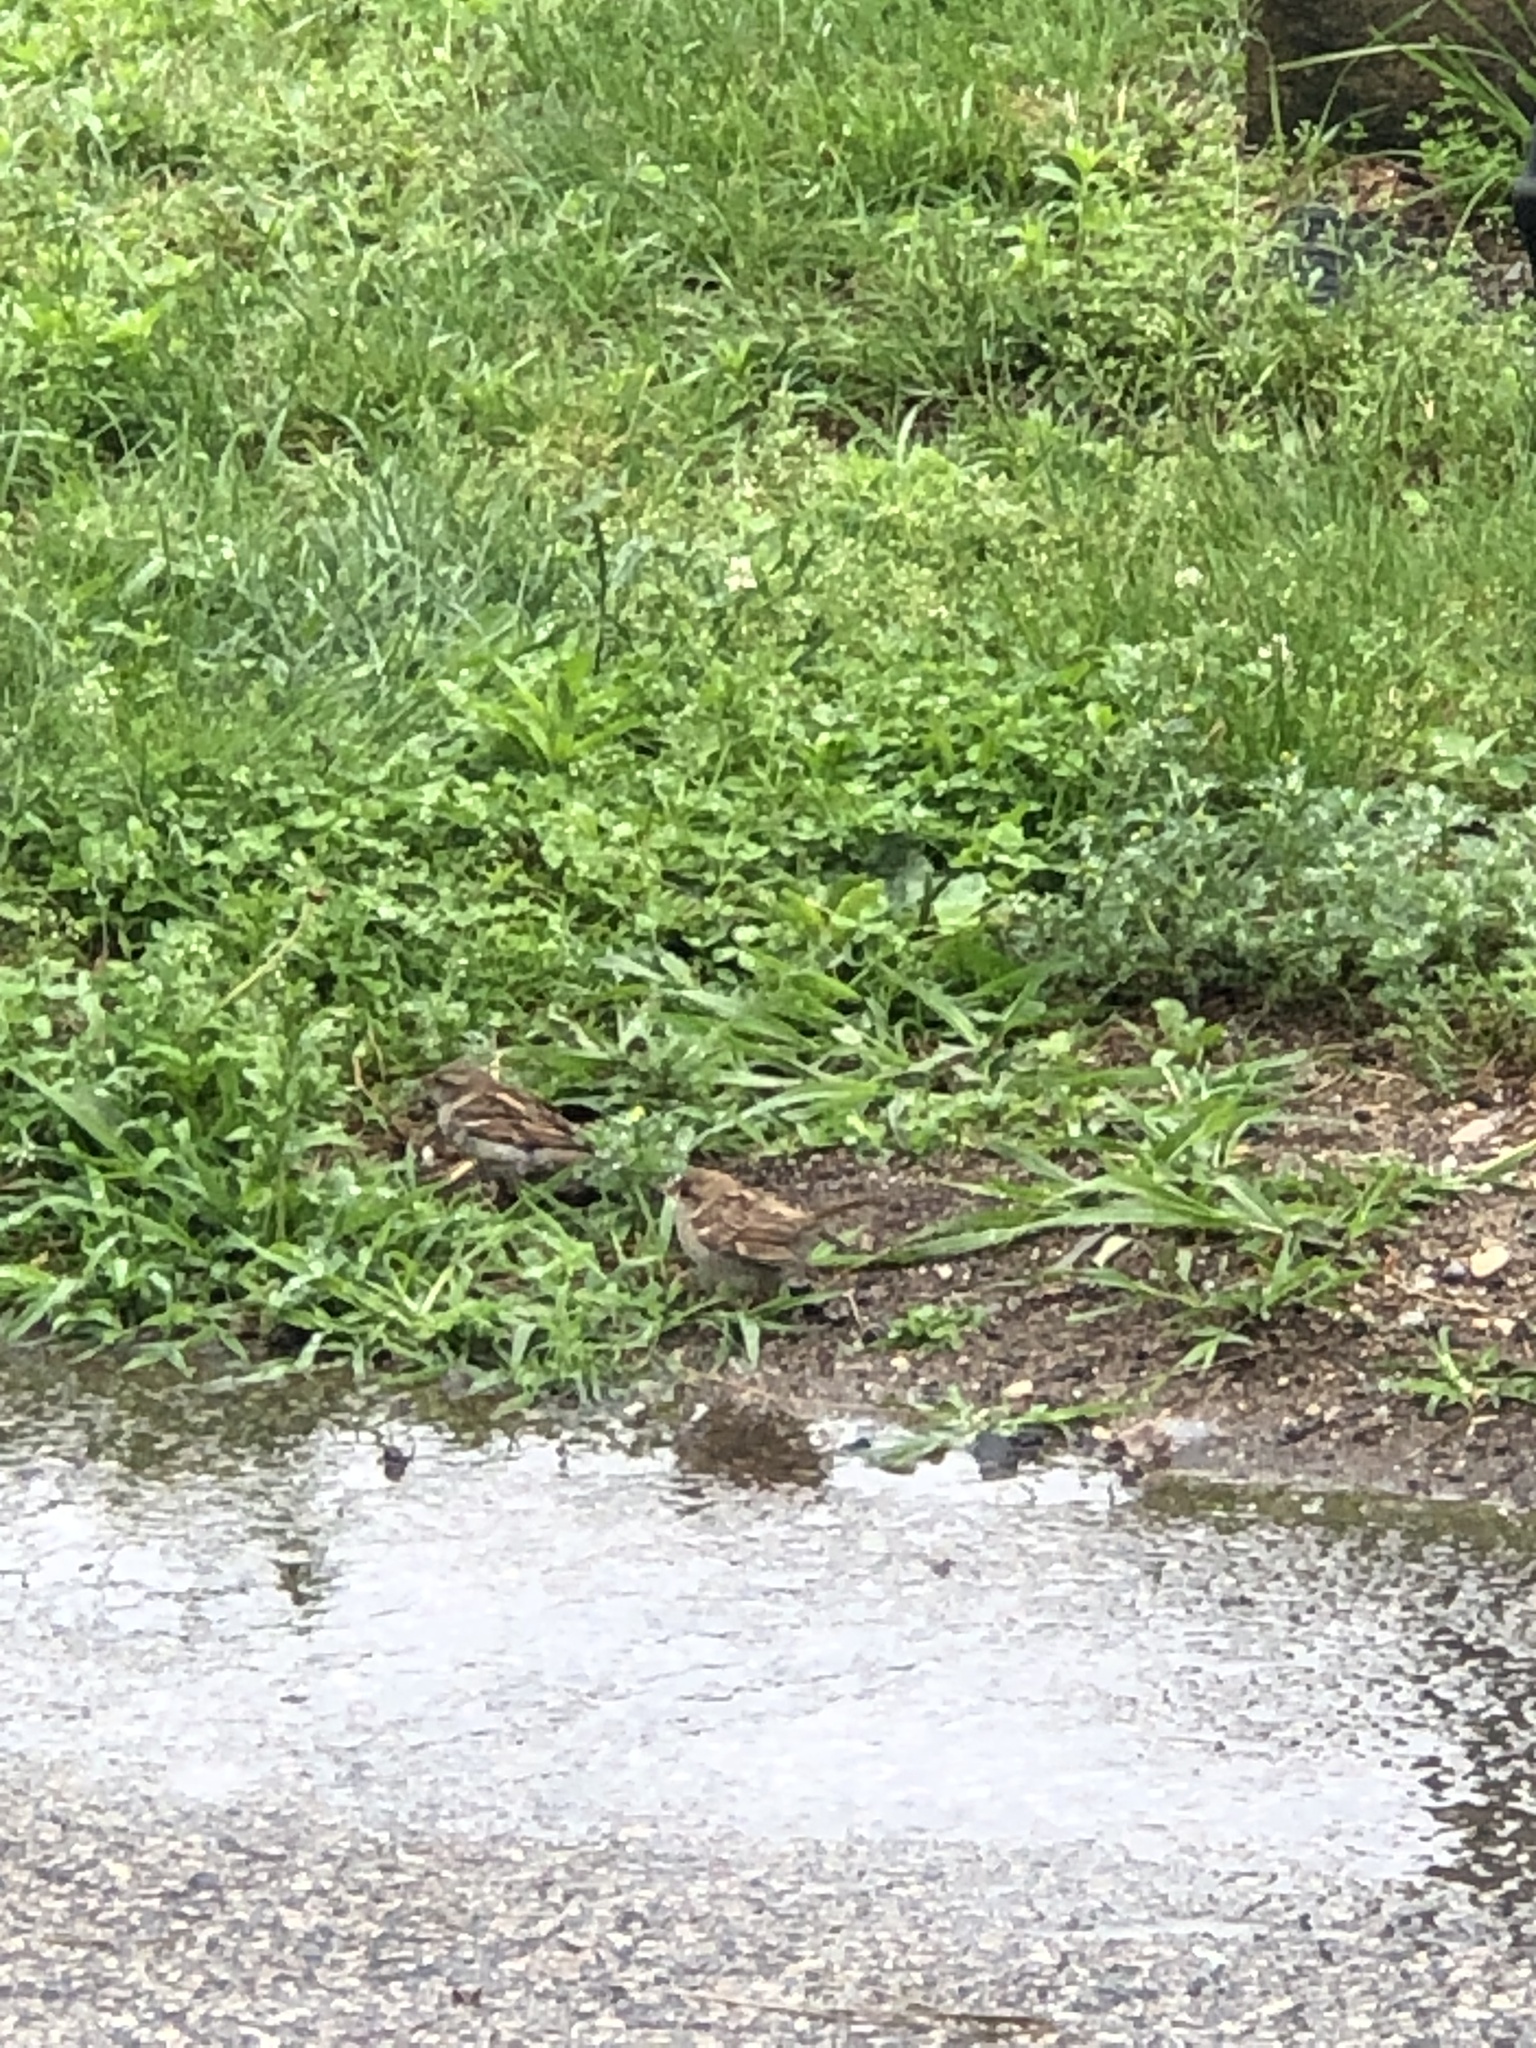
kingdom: Animalia
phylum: Chordata
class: Aves
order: Passeriformes
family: Passeridae
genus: Passer
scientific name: Passer domesticus
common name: House sparrow
